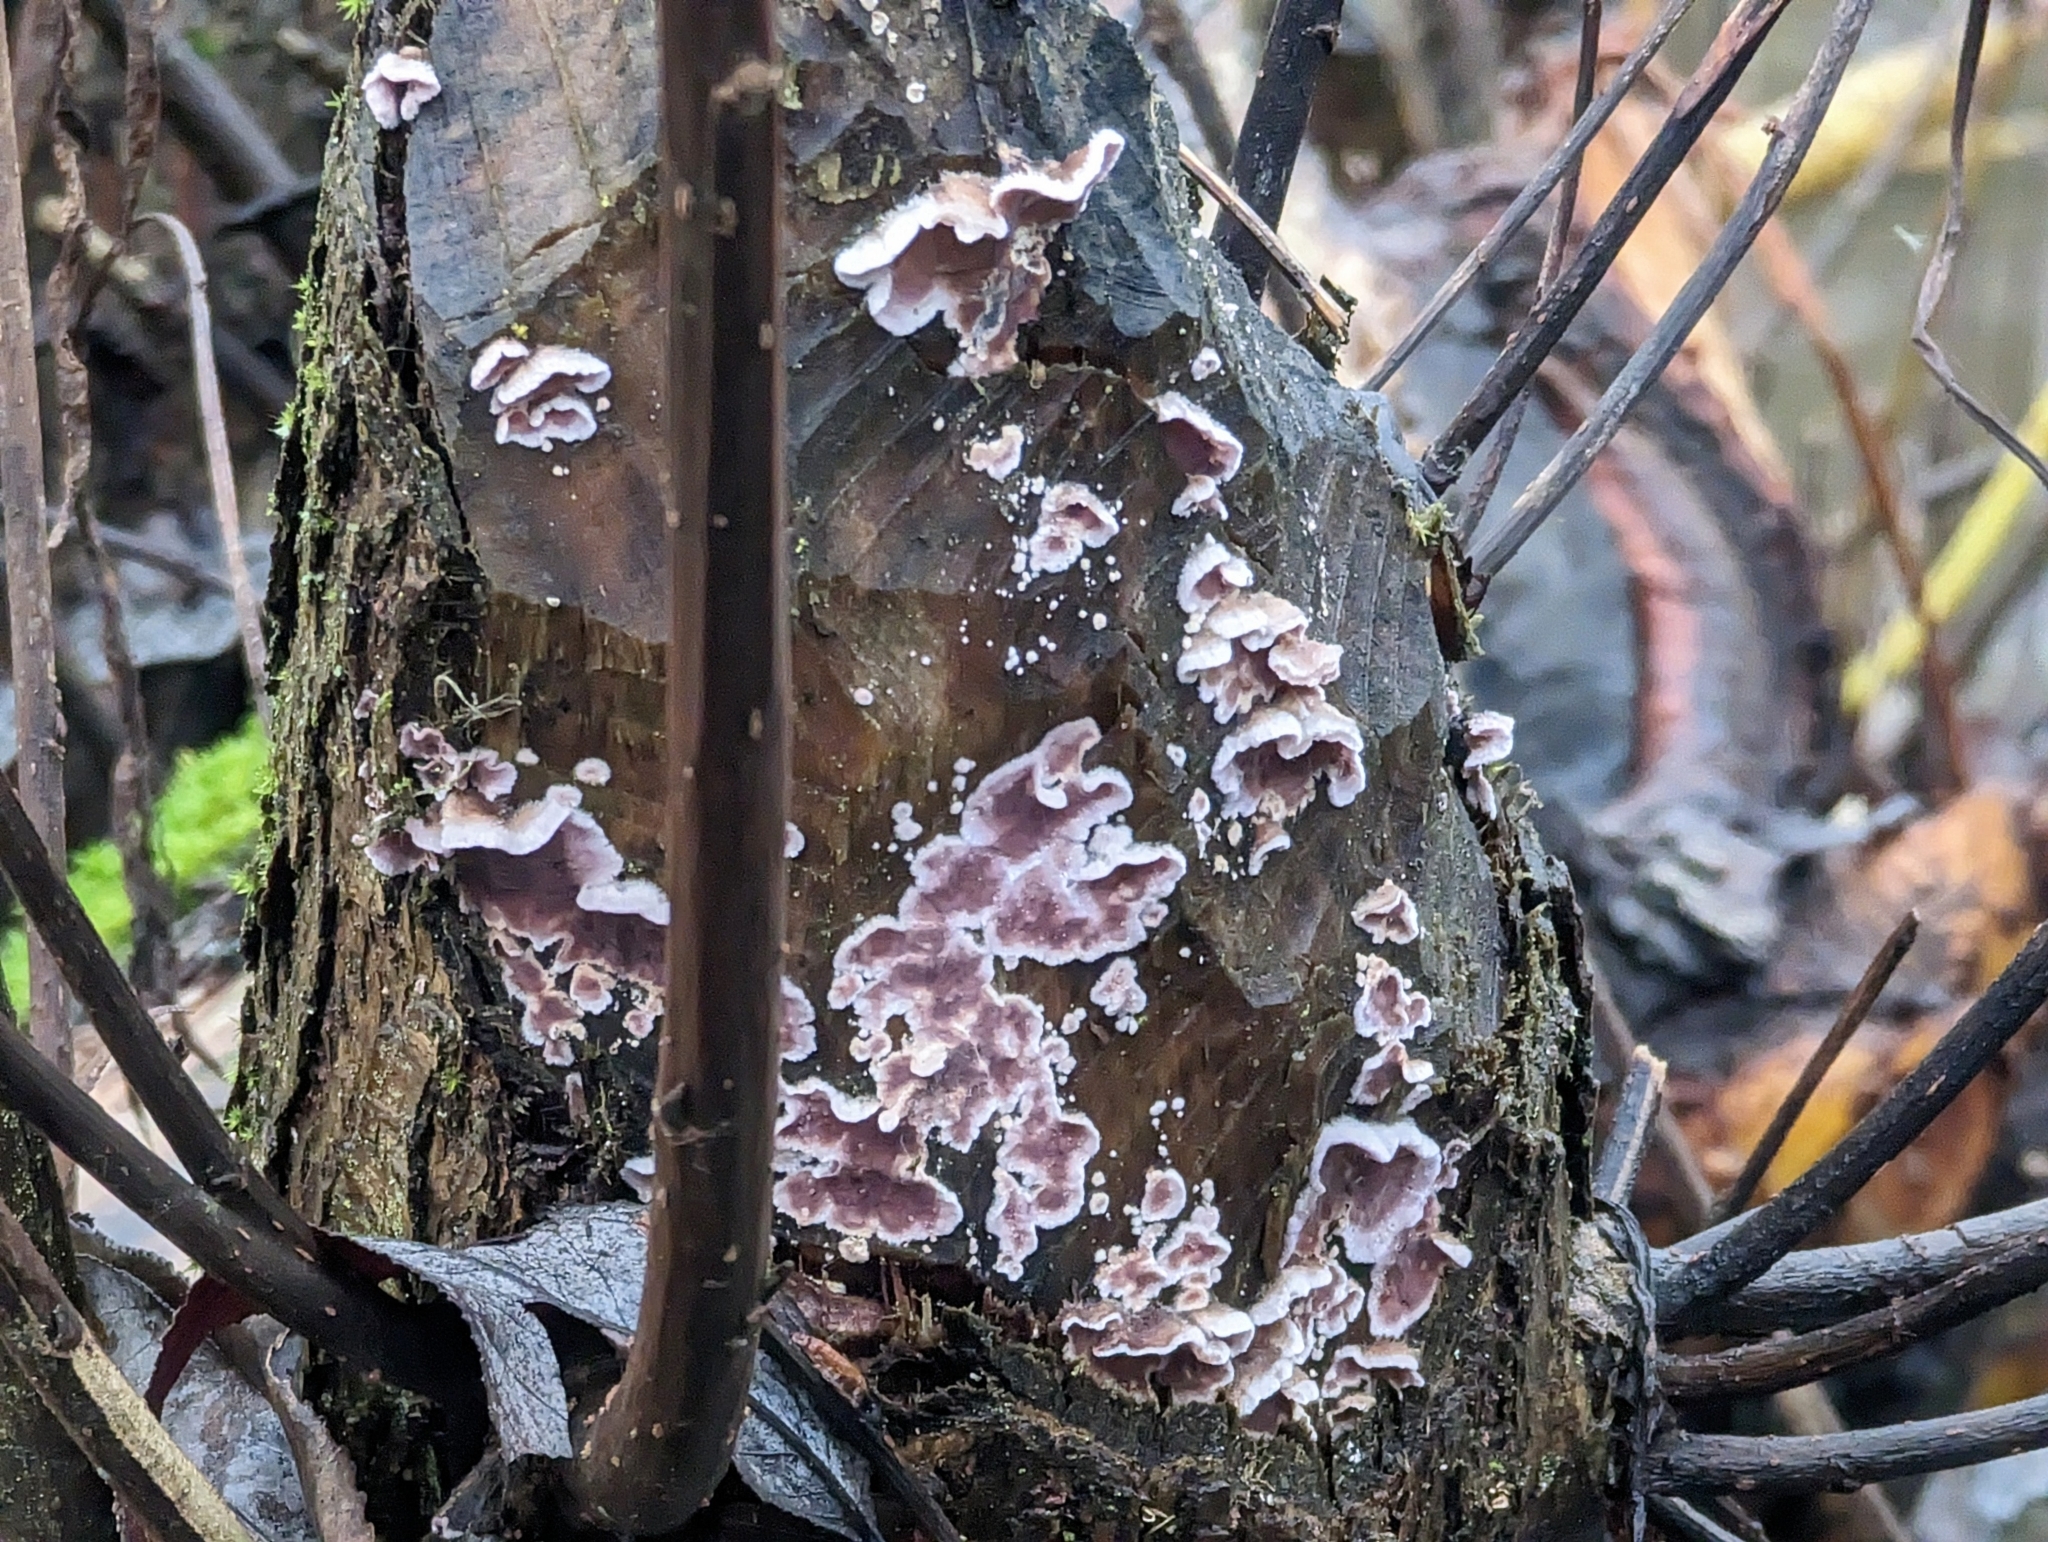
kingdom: Fungi
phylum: Basidiomycota
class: Agaricomycetes
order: Agaricales
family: Cyphellaceae
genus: Chondrostereum
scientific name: Chondrostereum purpureum
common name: Silver leaf disease
